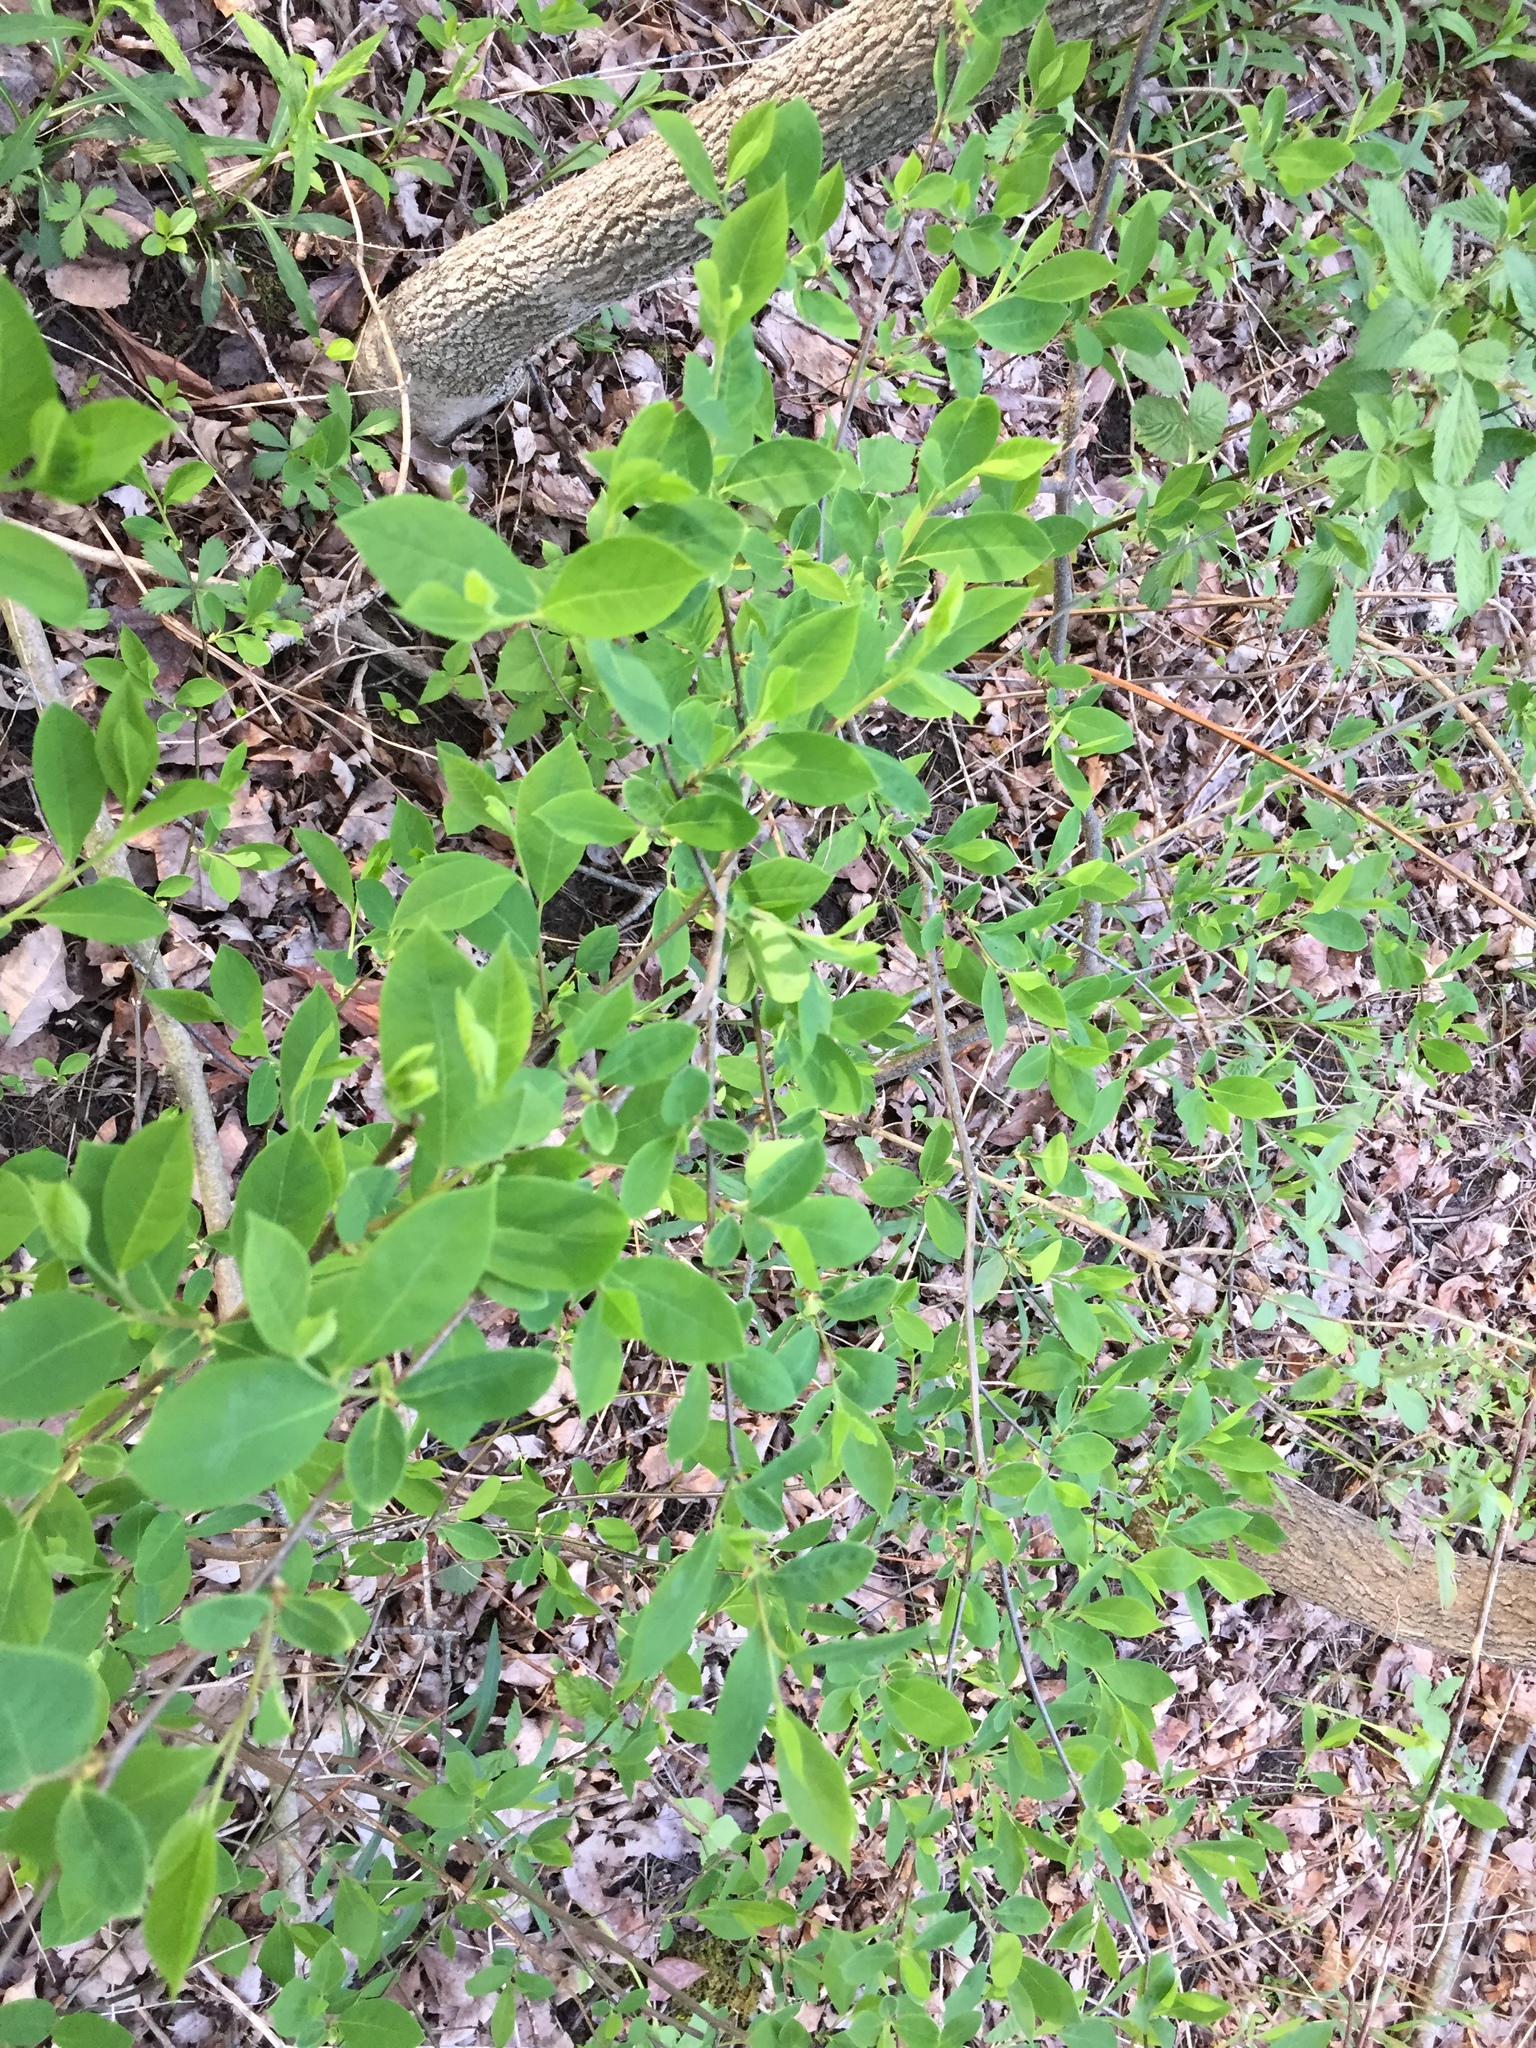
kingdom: Plantae
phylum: Tracheophyta
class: Magnoliopsida
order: Laurales
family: Lauraceae
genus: Lindera
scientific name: Lindera benzoin
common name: Spicebush
